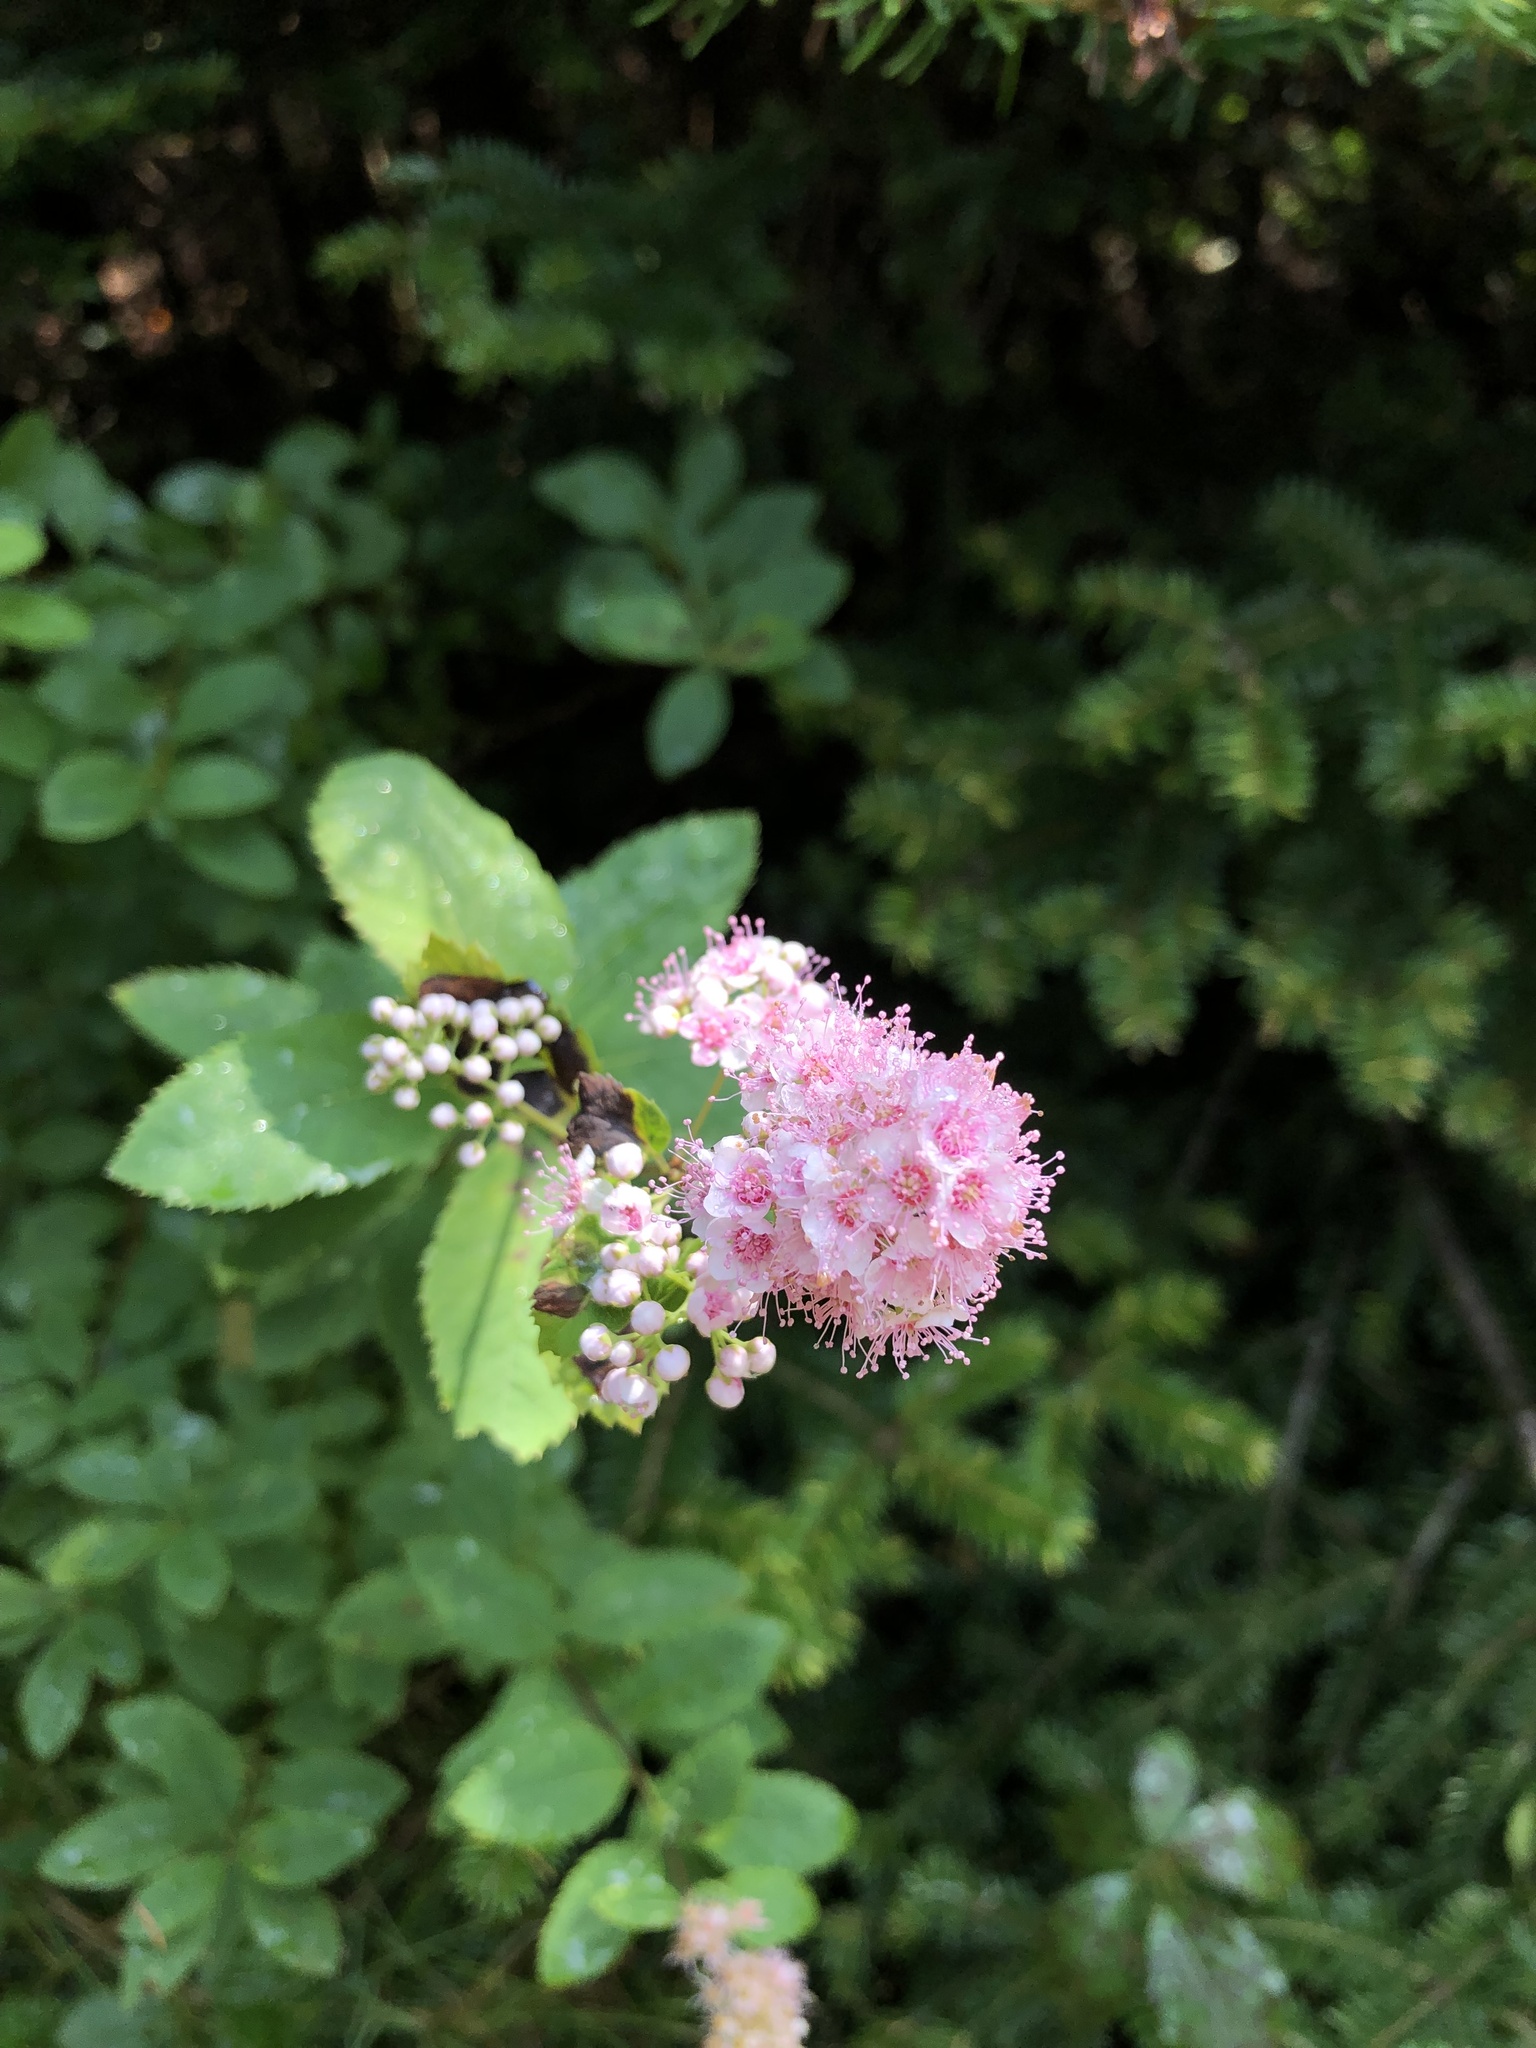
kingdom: Plantae
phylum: Tracheophyta
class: Magnoliopsida
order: Rosales
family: Rosaceae
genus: Spiraea
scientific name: Spiraea alba
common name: Pale bridewort
